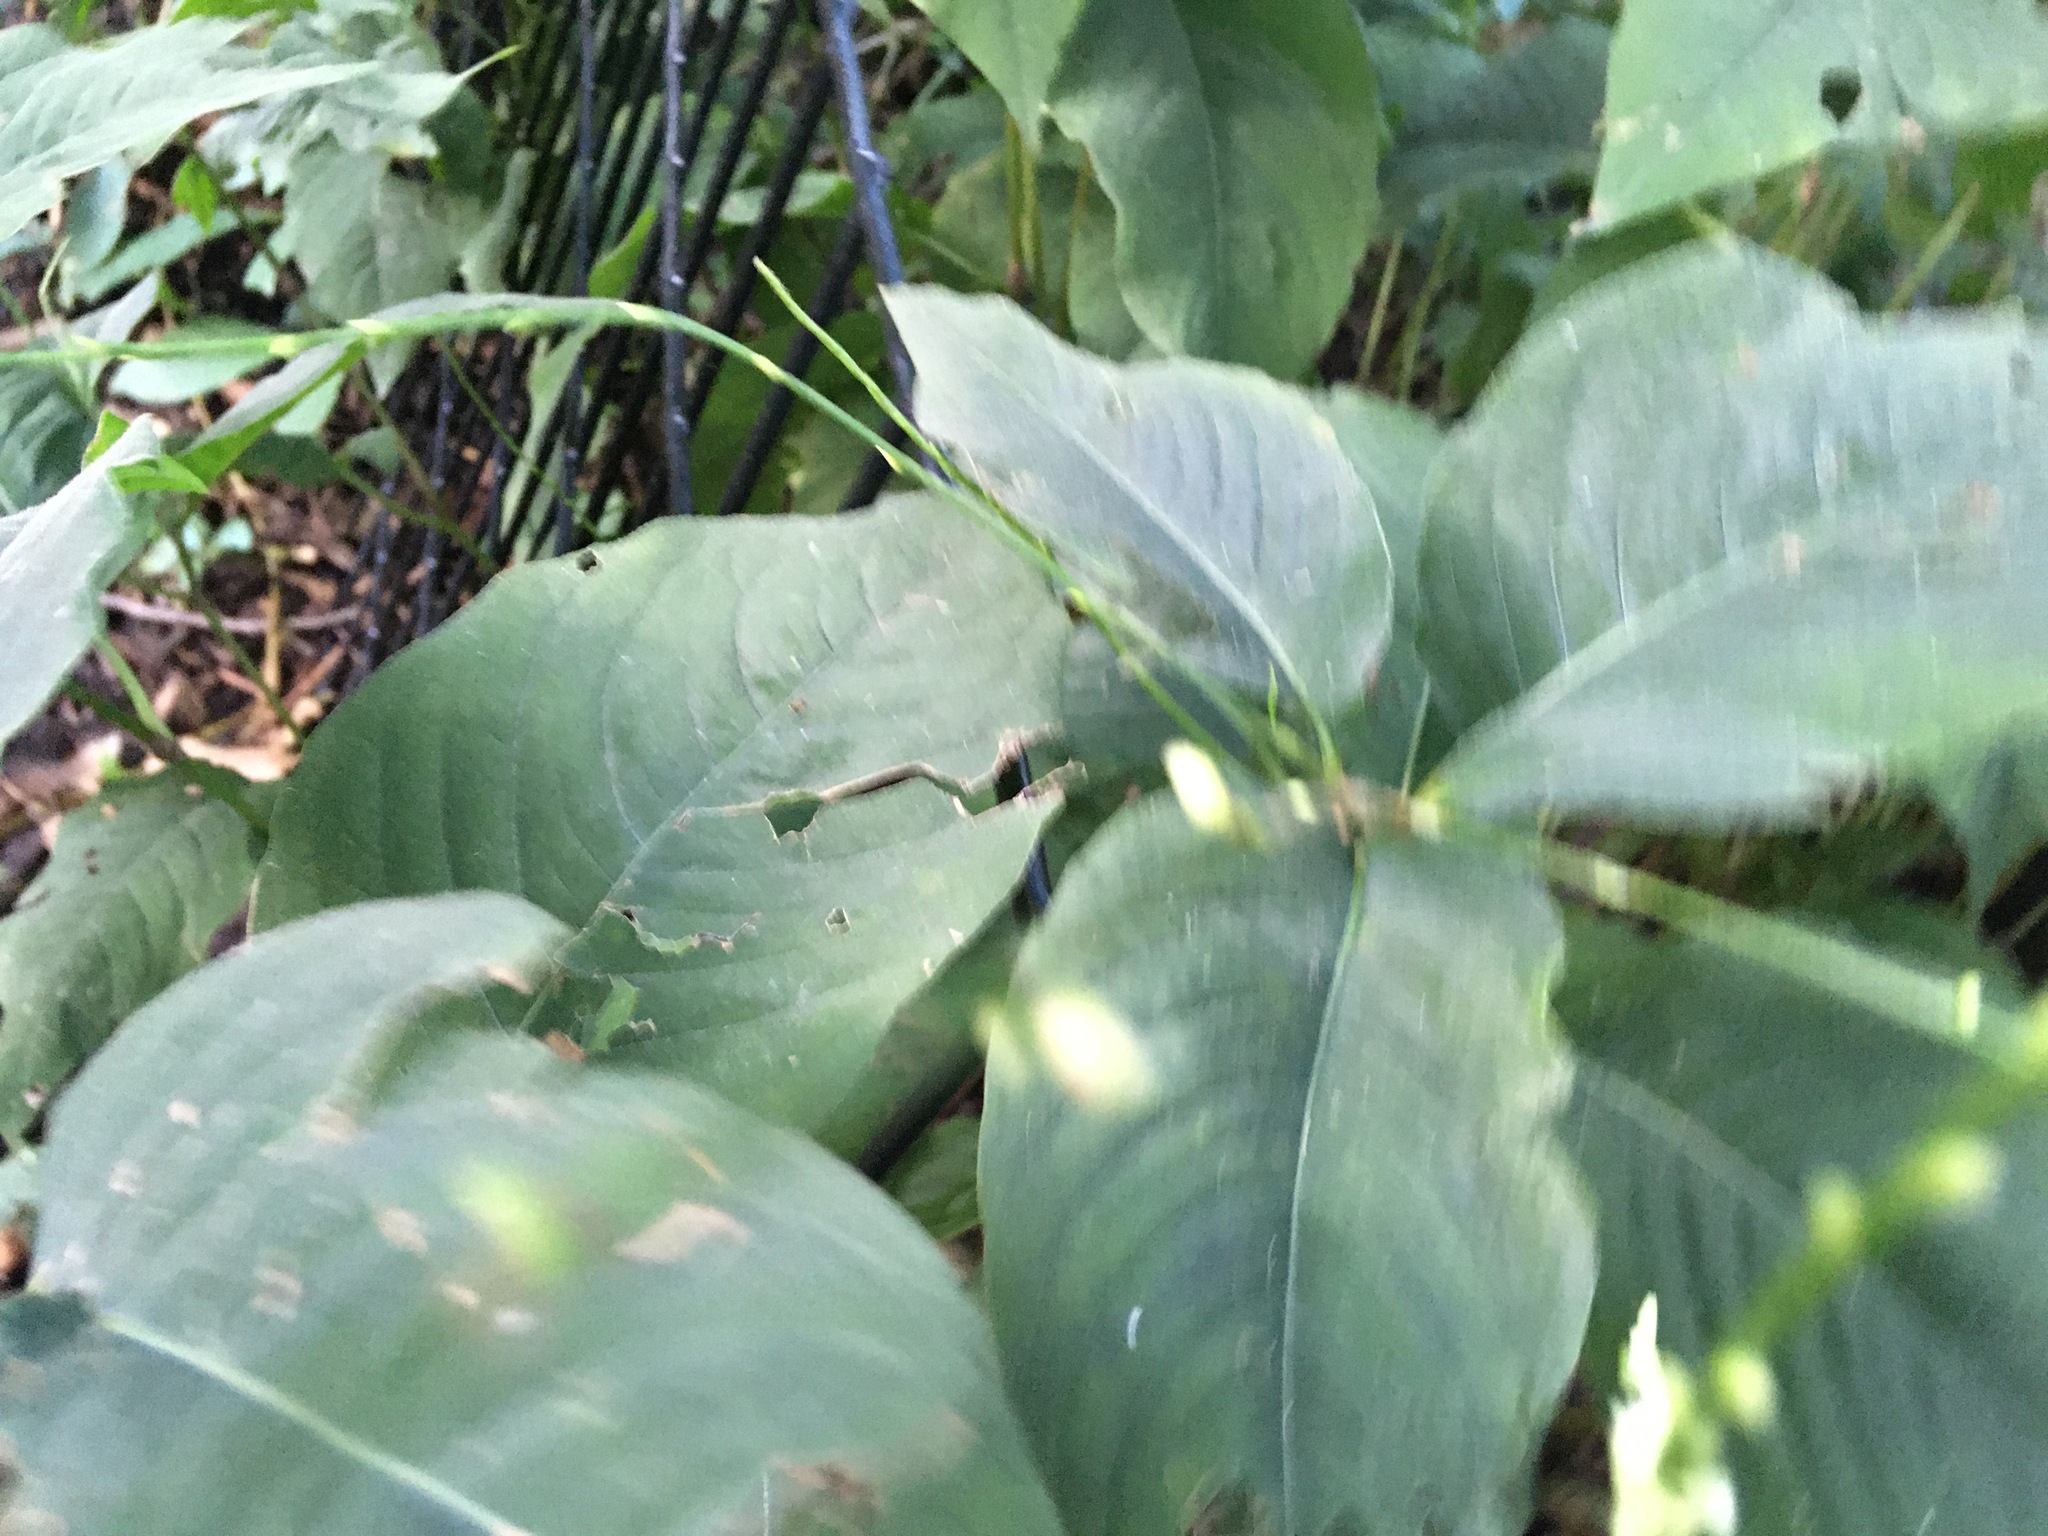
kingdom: Plantae
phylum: Tracheophyta
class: Magnoliopsida
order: Caryophyllales
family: Polygonaceae
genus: Persicaria
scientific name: Persicaria virginiana
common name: Jumpseed
